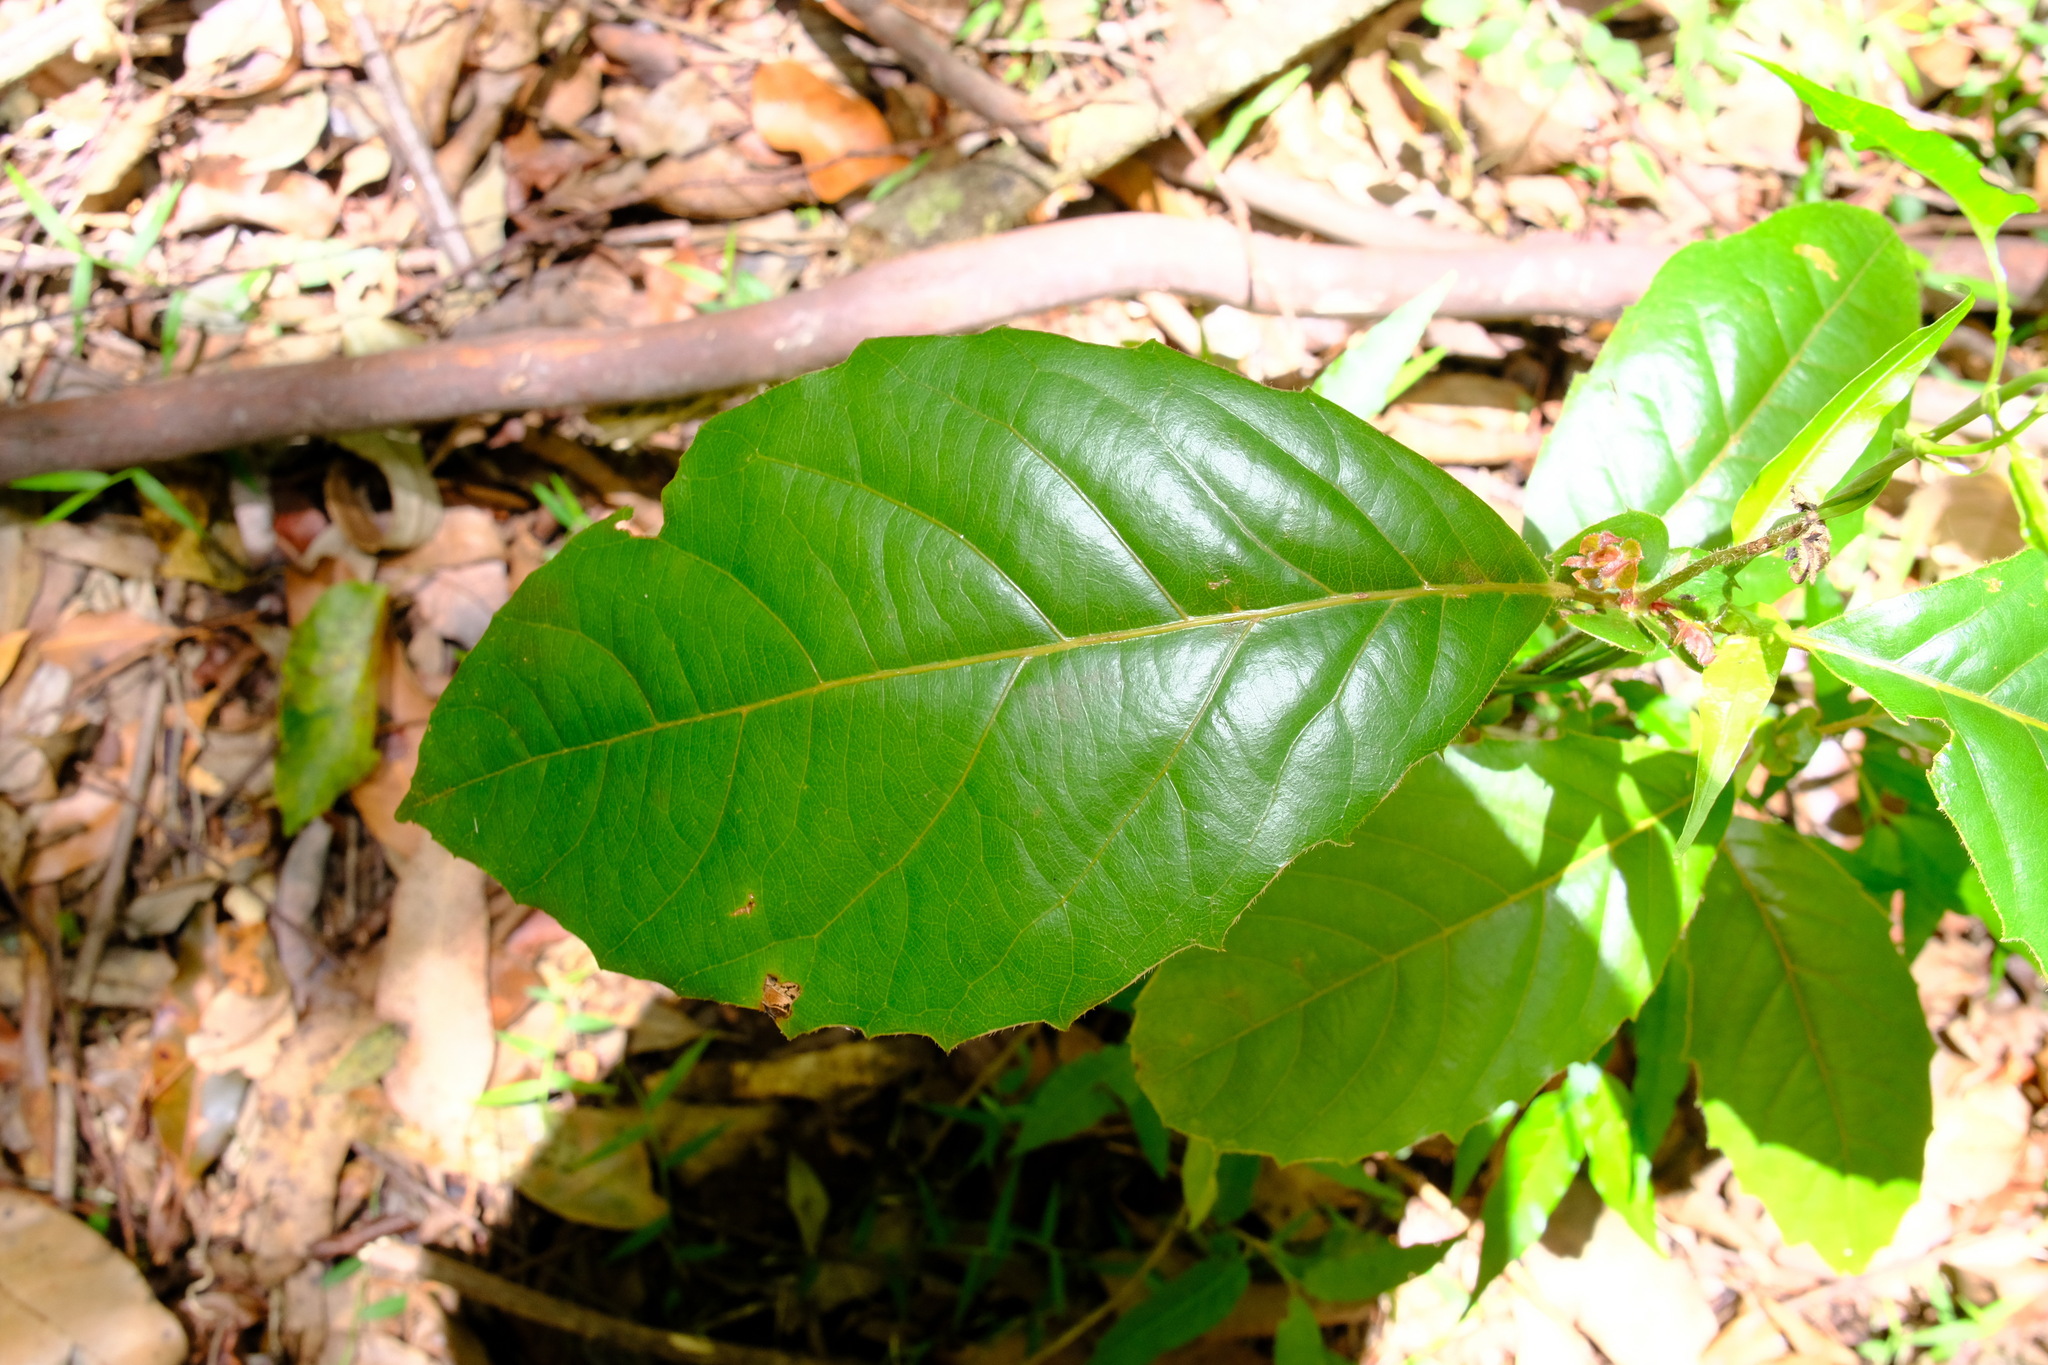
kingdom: Plantae
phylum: Tracheophyta
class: Magnoliopsida
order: Oxalidales
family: Cunoniaceae
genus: Karrabina
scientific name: Karrabina benthamiana
